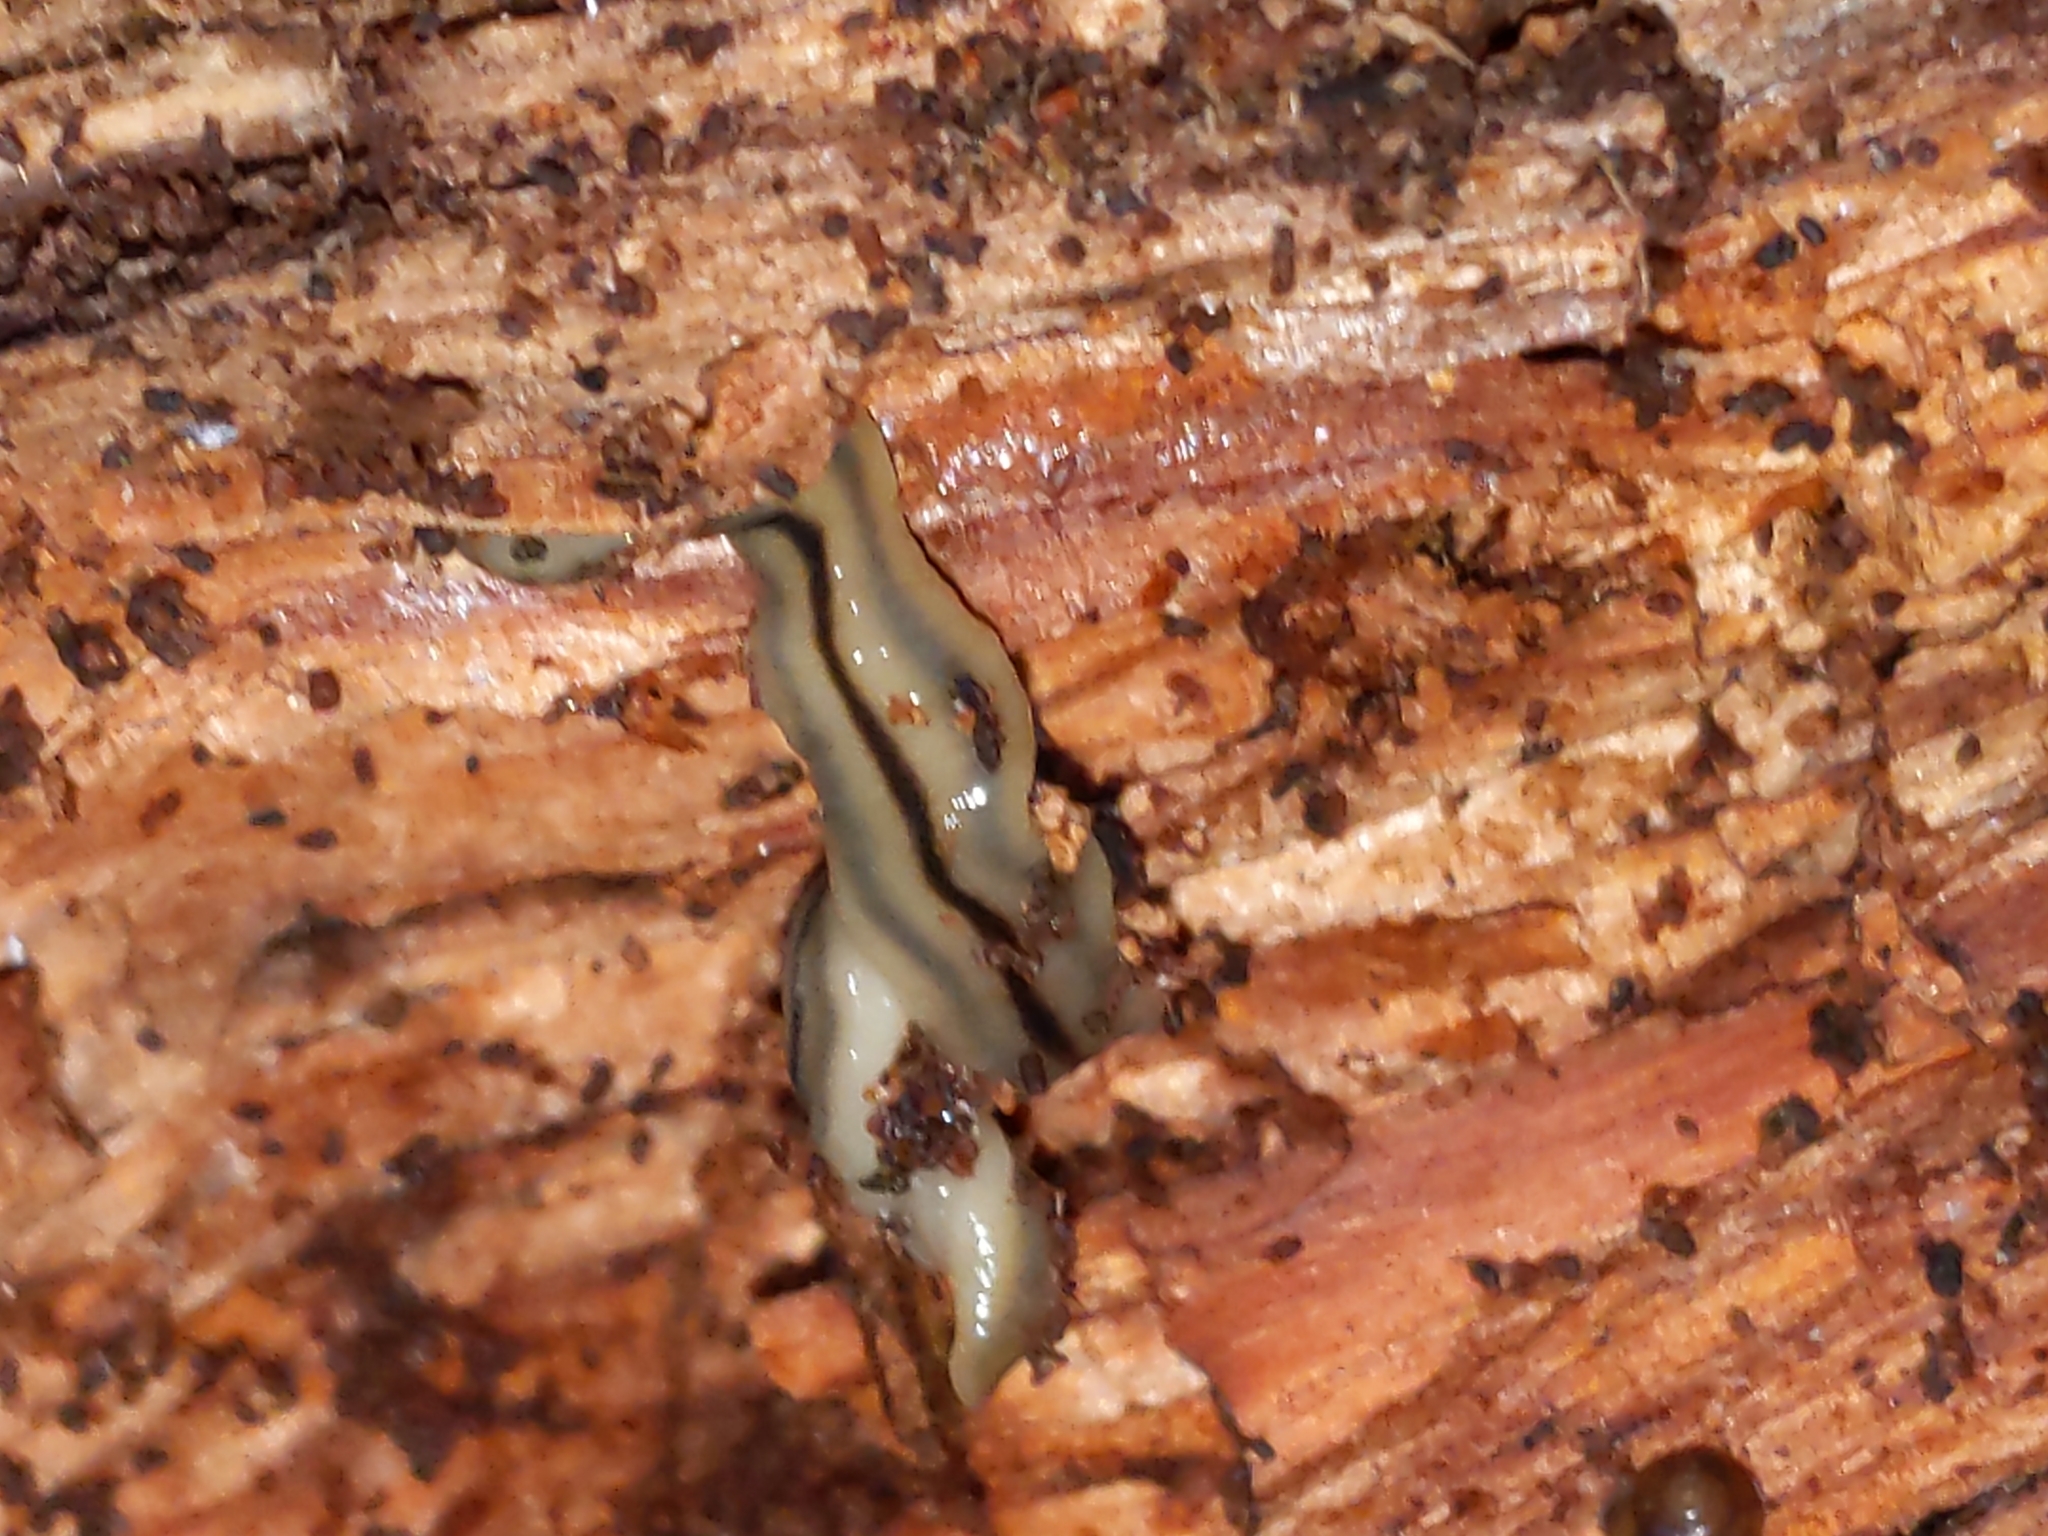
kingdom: Animalia
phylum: Platyhelminthes
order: Tricladida
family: Geoplanidae
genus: Bipalium
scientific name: Bipalium pennsylvanicum
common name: Three-lined land planarian
